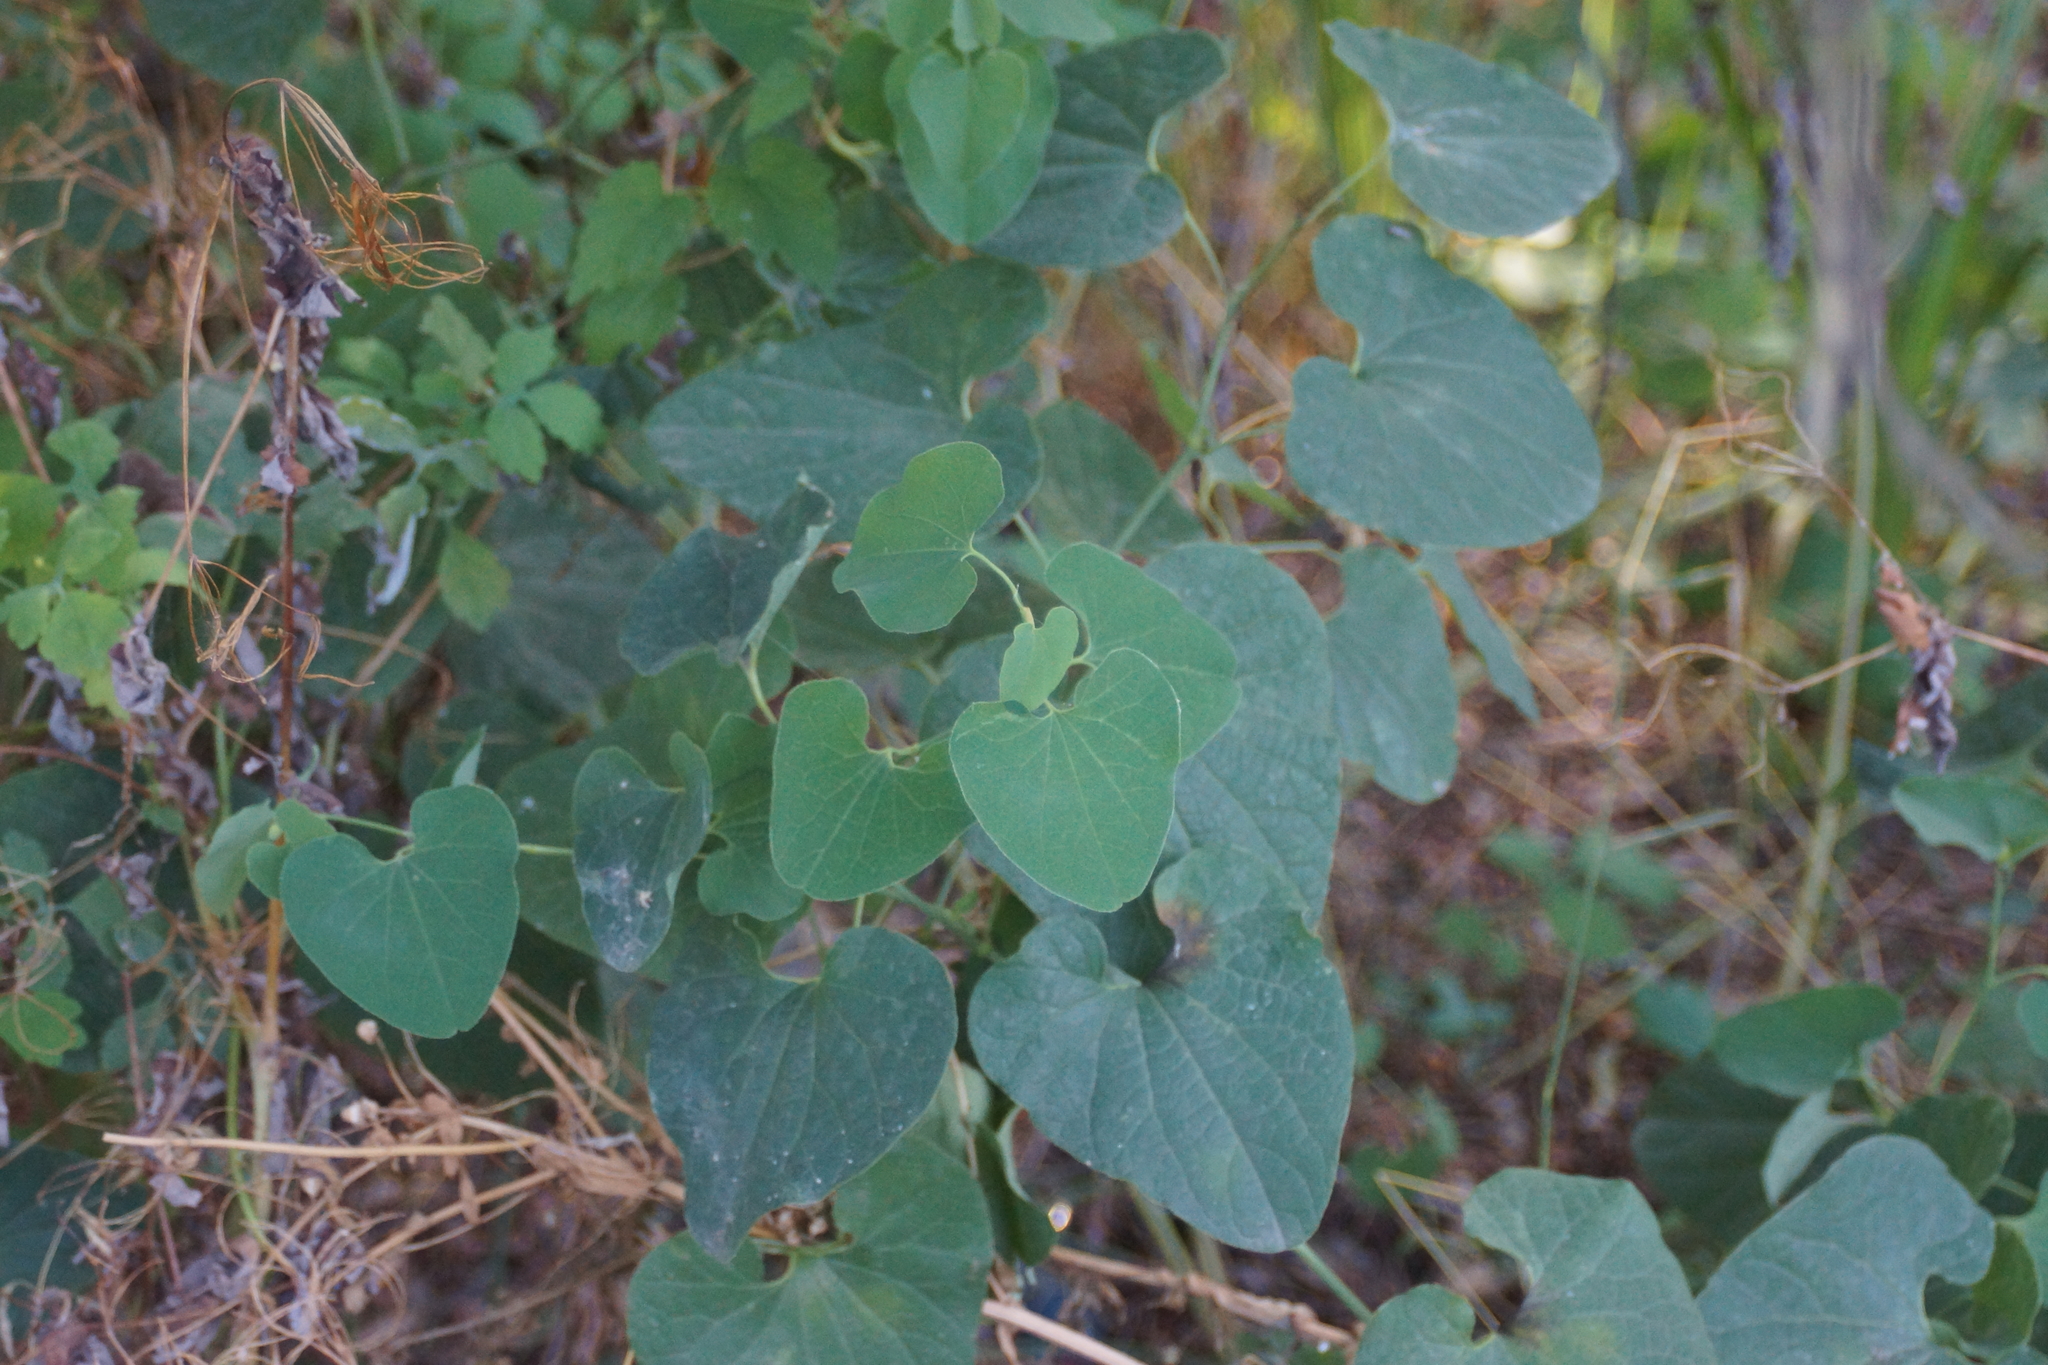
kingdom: Plantae
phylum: Tracheophyta
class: Magnoliopsida
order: Piperales
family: Aristolochiaceae
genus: Aristolochia
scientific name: Aristolochia clematitis
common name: Birthwort
